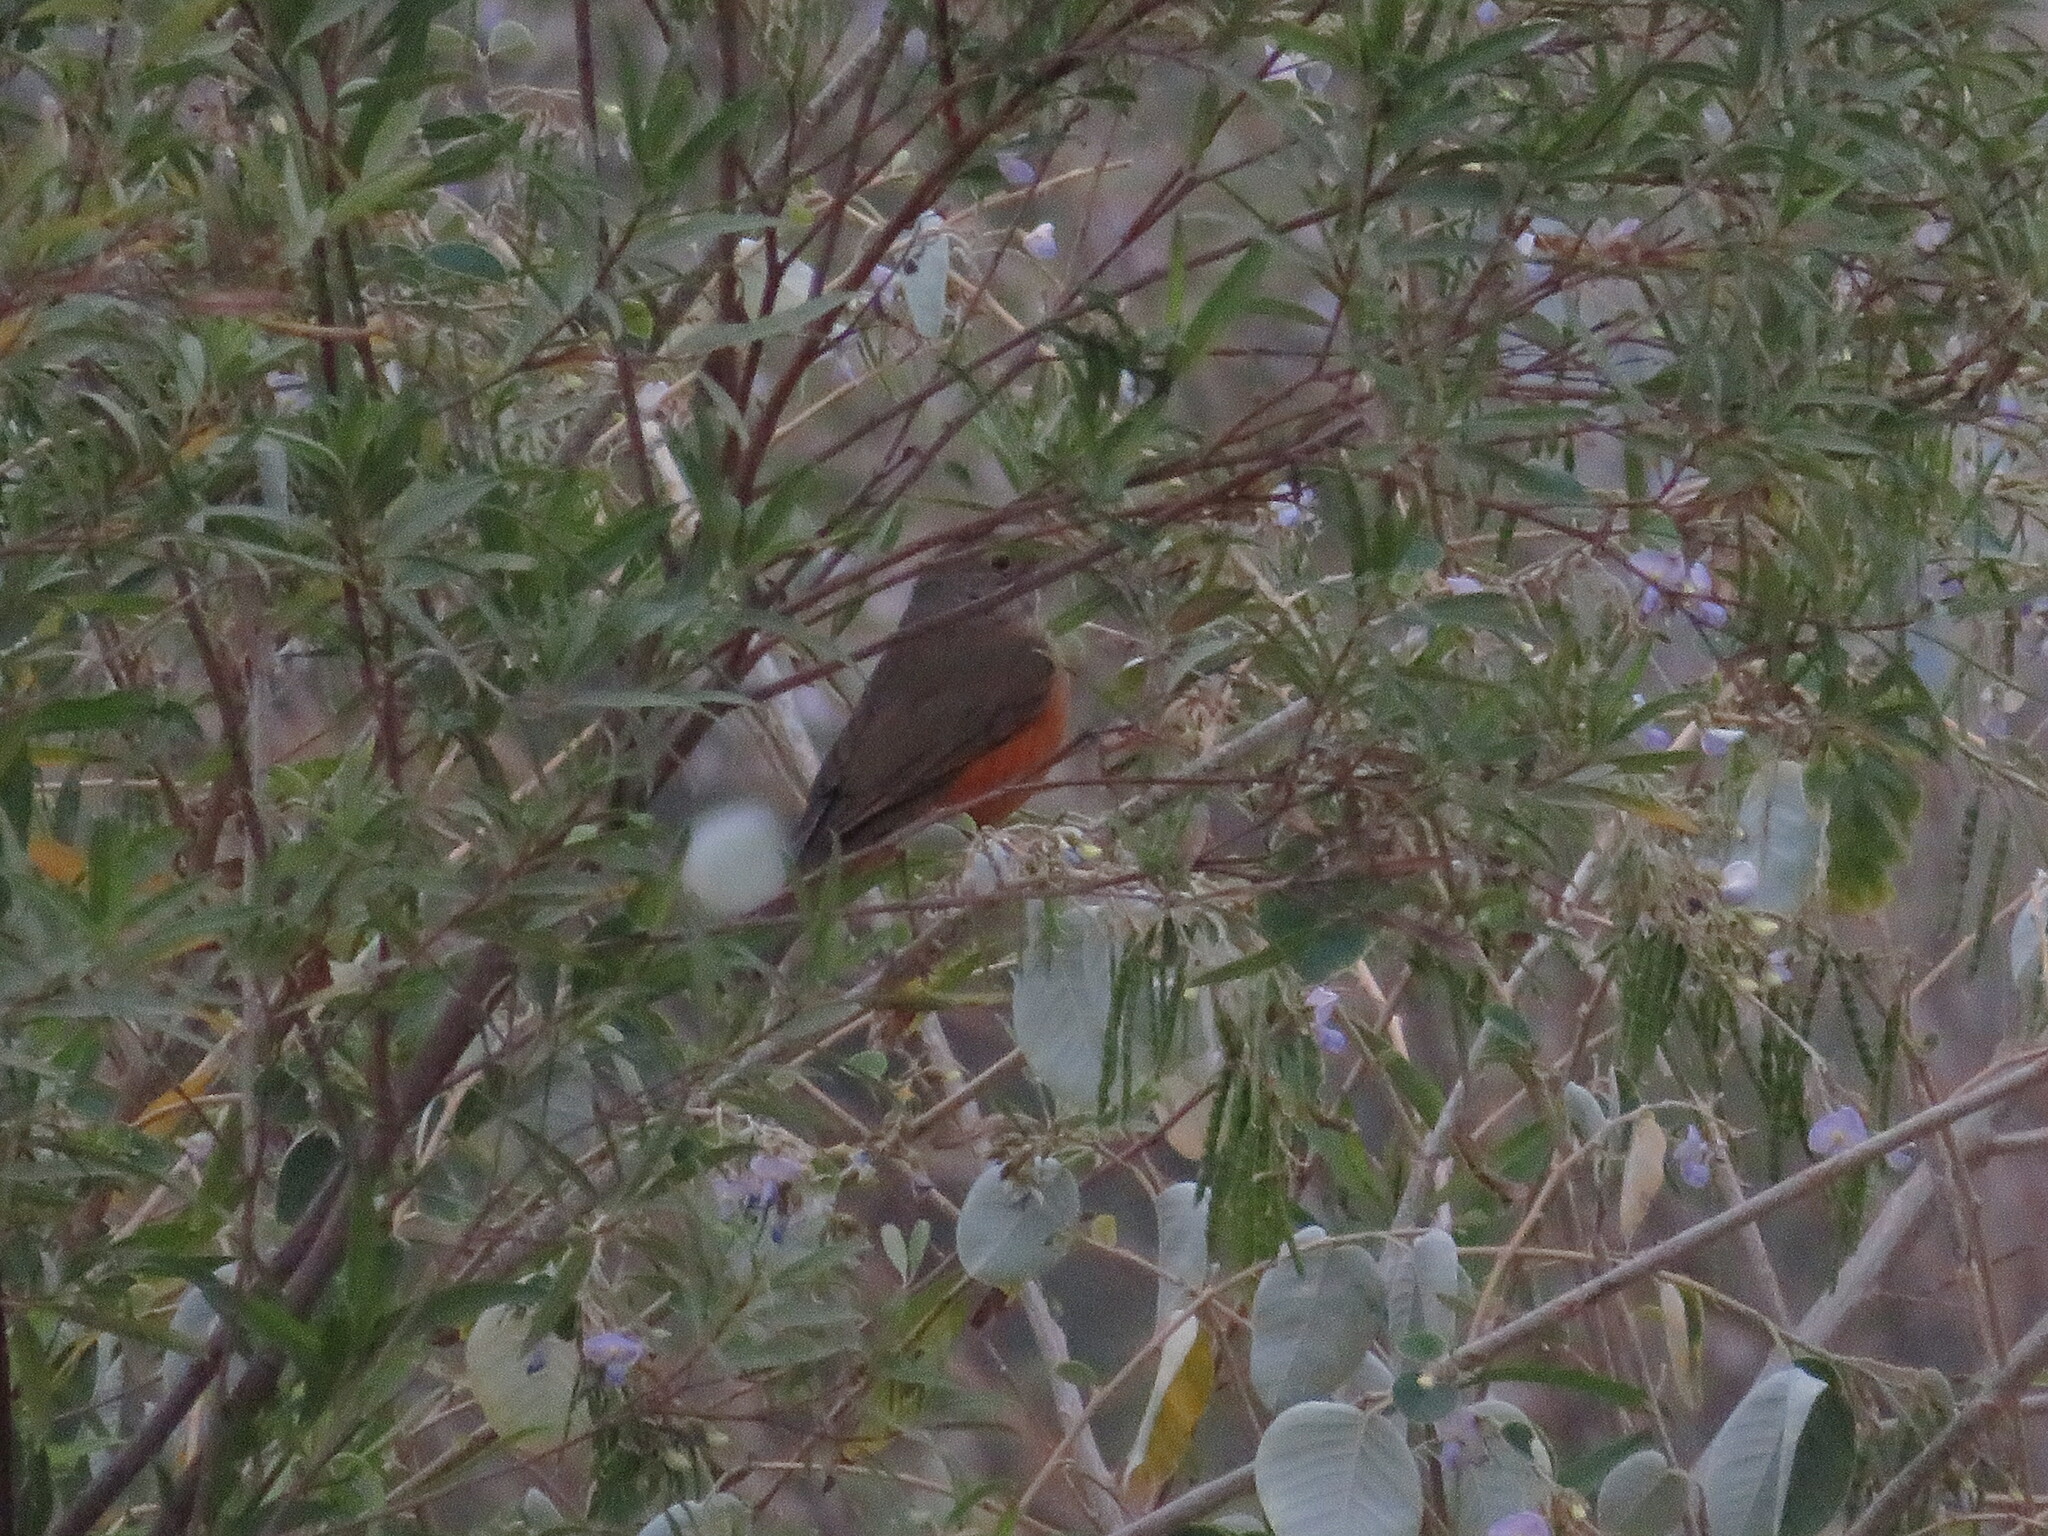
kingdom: Animalia
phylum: Chordata
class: Aves
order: Passeriformes
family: Turdidae
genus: Turdus
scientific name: Turdus rufiventris
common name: Rufous-bellied thrush
